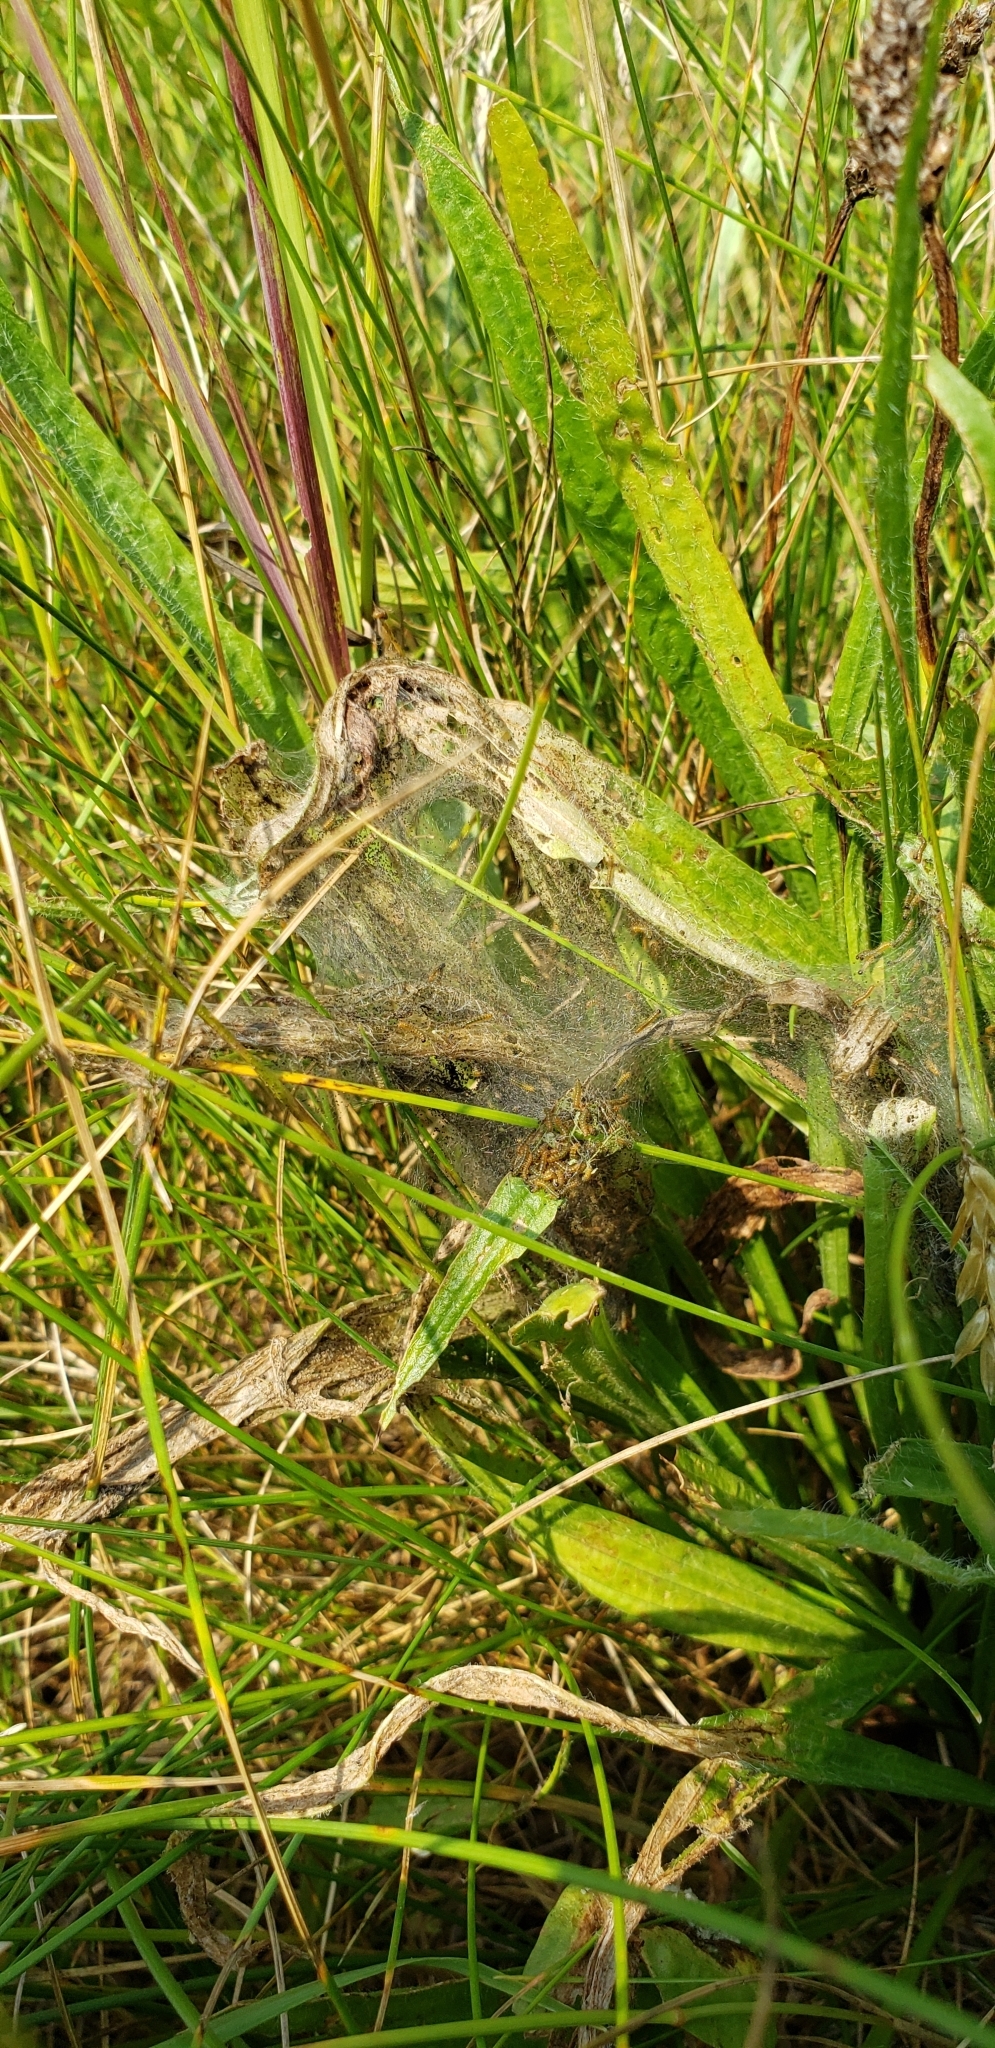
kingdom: Animalia
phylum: Arthropoda
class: Insecta
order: Lepidoptera
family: Nymphalidae
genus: Euphydryas
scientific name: Euphydryas phaeton
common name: Baltimore checkerspot
